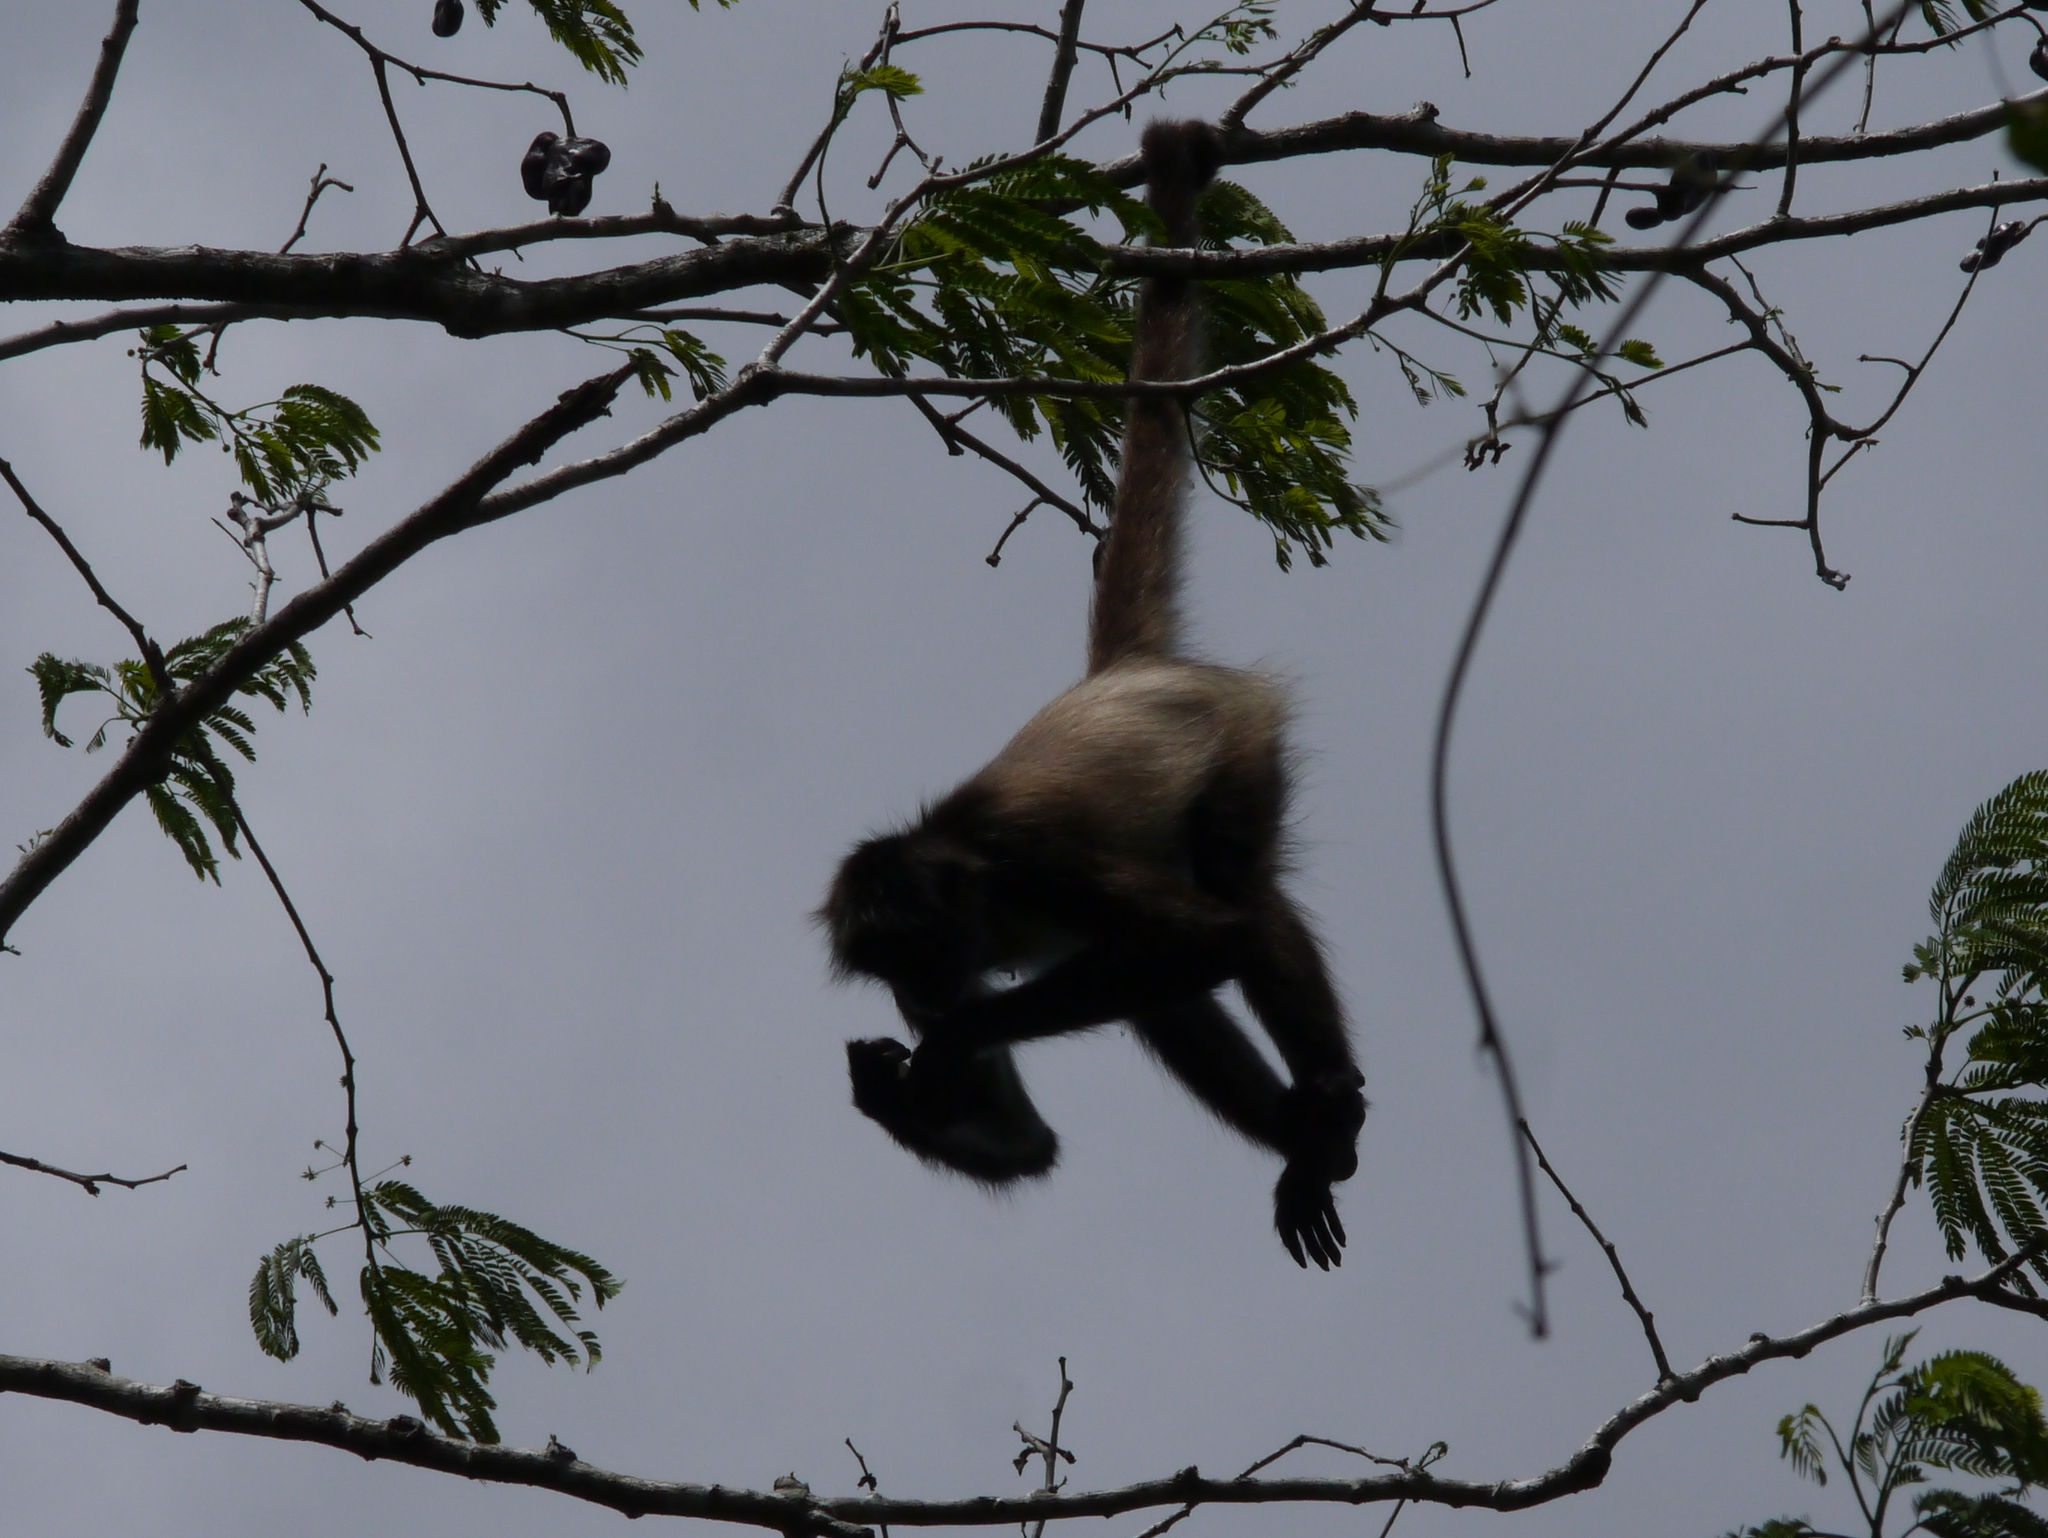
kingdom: Animalia
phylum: Chordata
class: Mammalia
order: Primates
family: Atelidae
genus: Ateles
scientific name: Ateles geoffroyi
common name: Black-handed spider monkey
